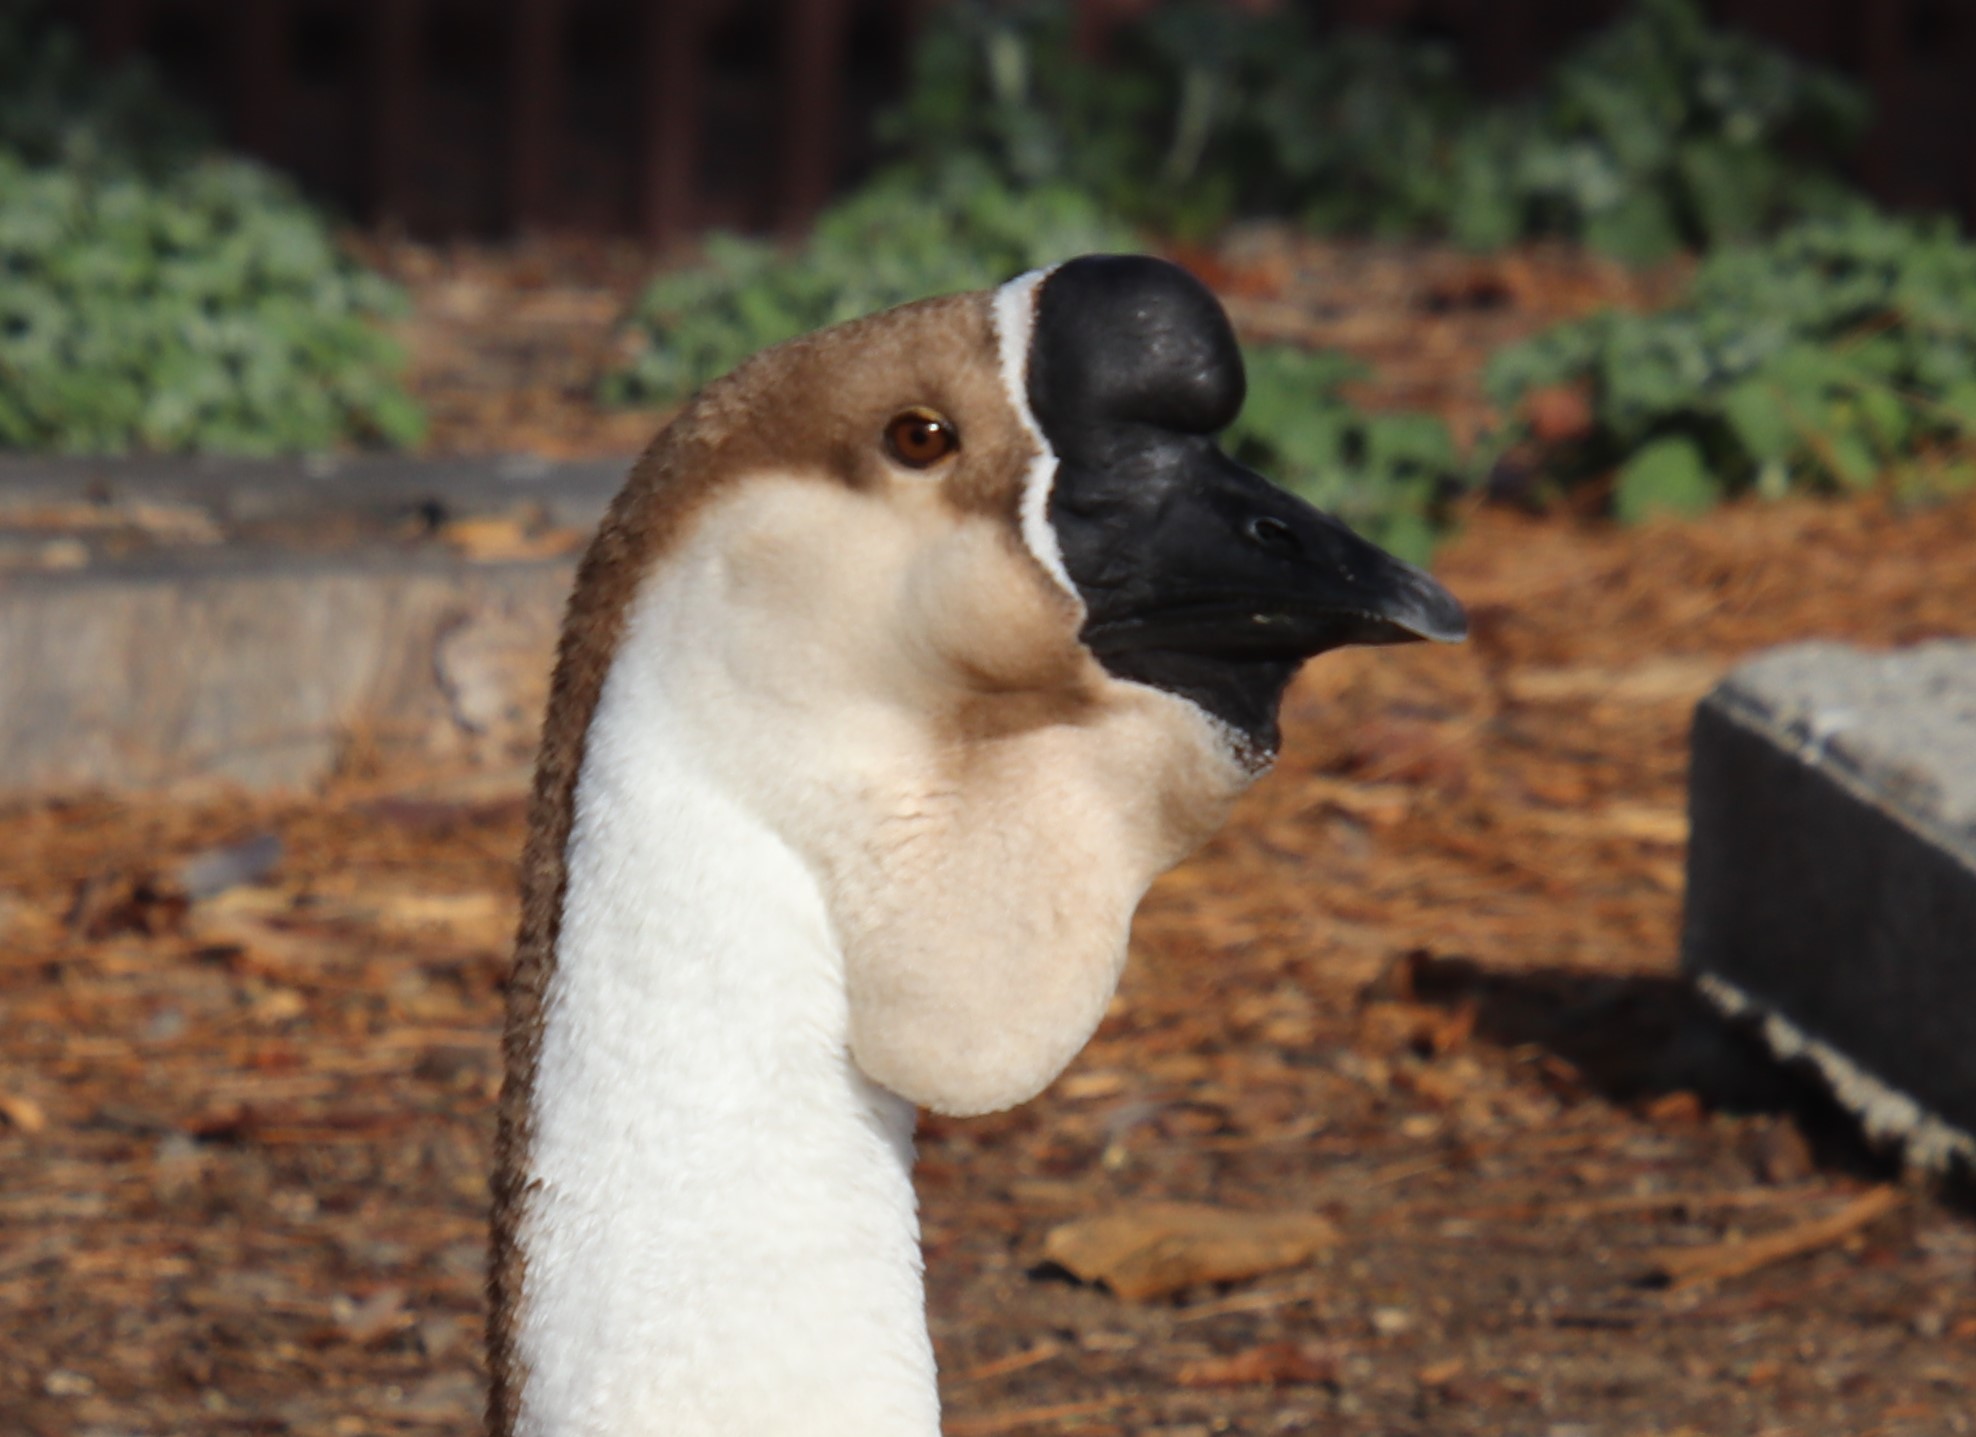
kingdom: Animalia
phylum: Chordata
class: Aves
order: Anseriformes
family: Anatidae
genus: Anser
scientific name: Anser cygnoides
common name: Swan goose
